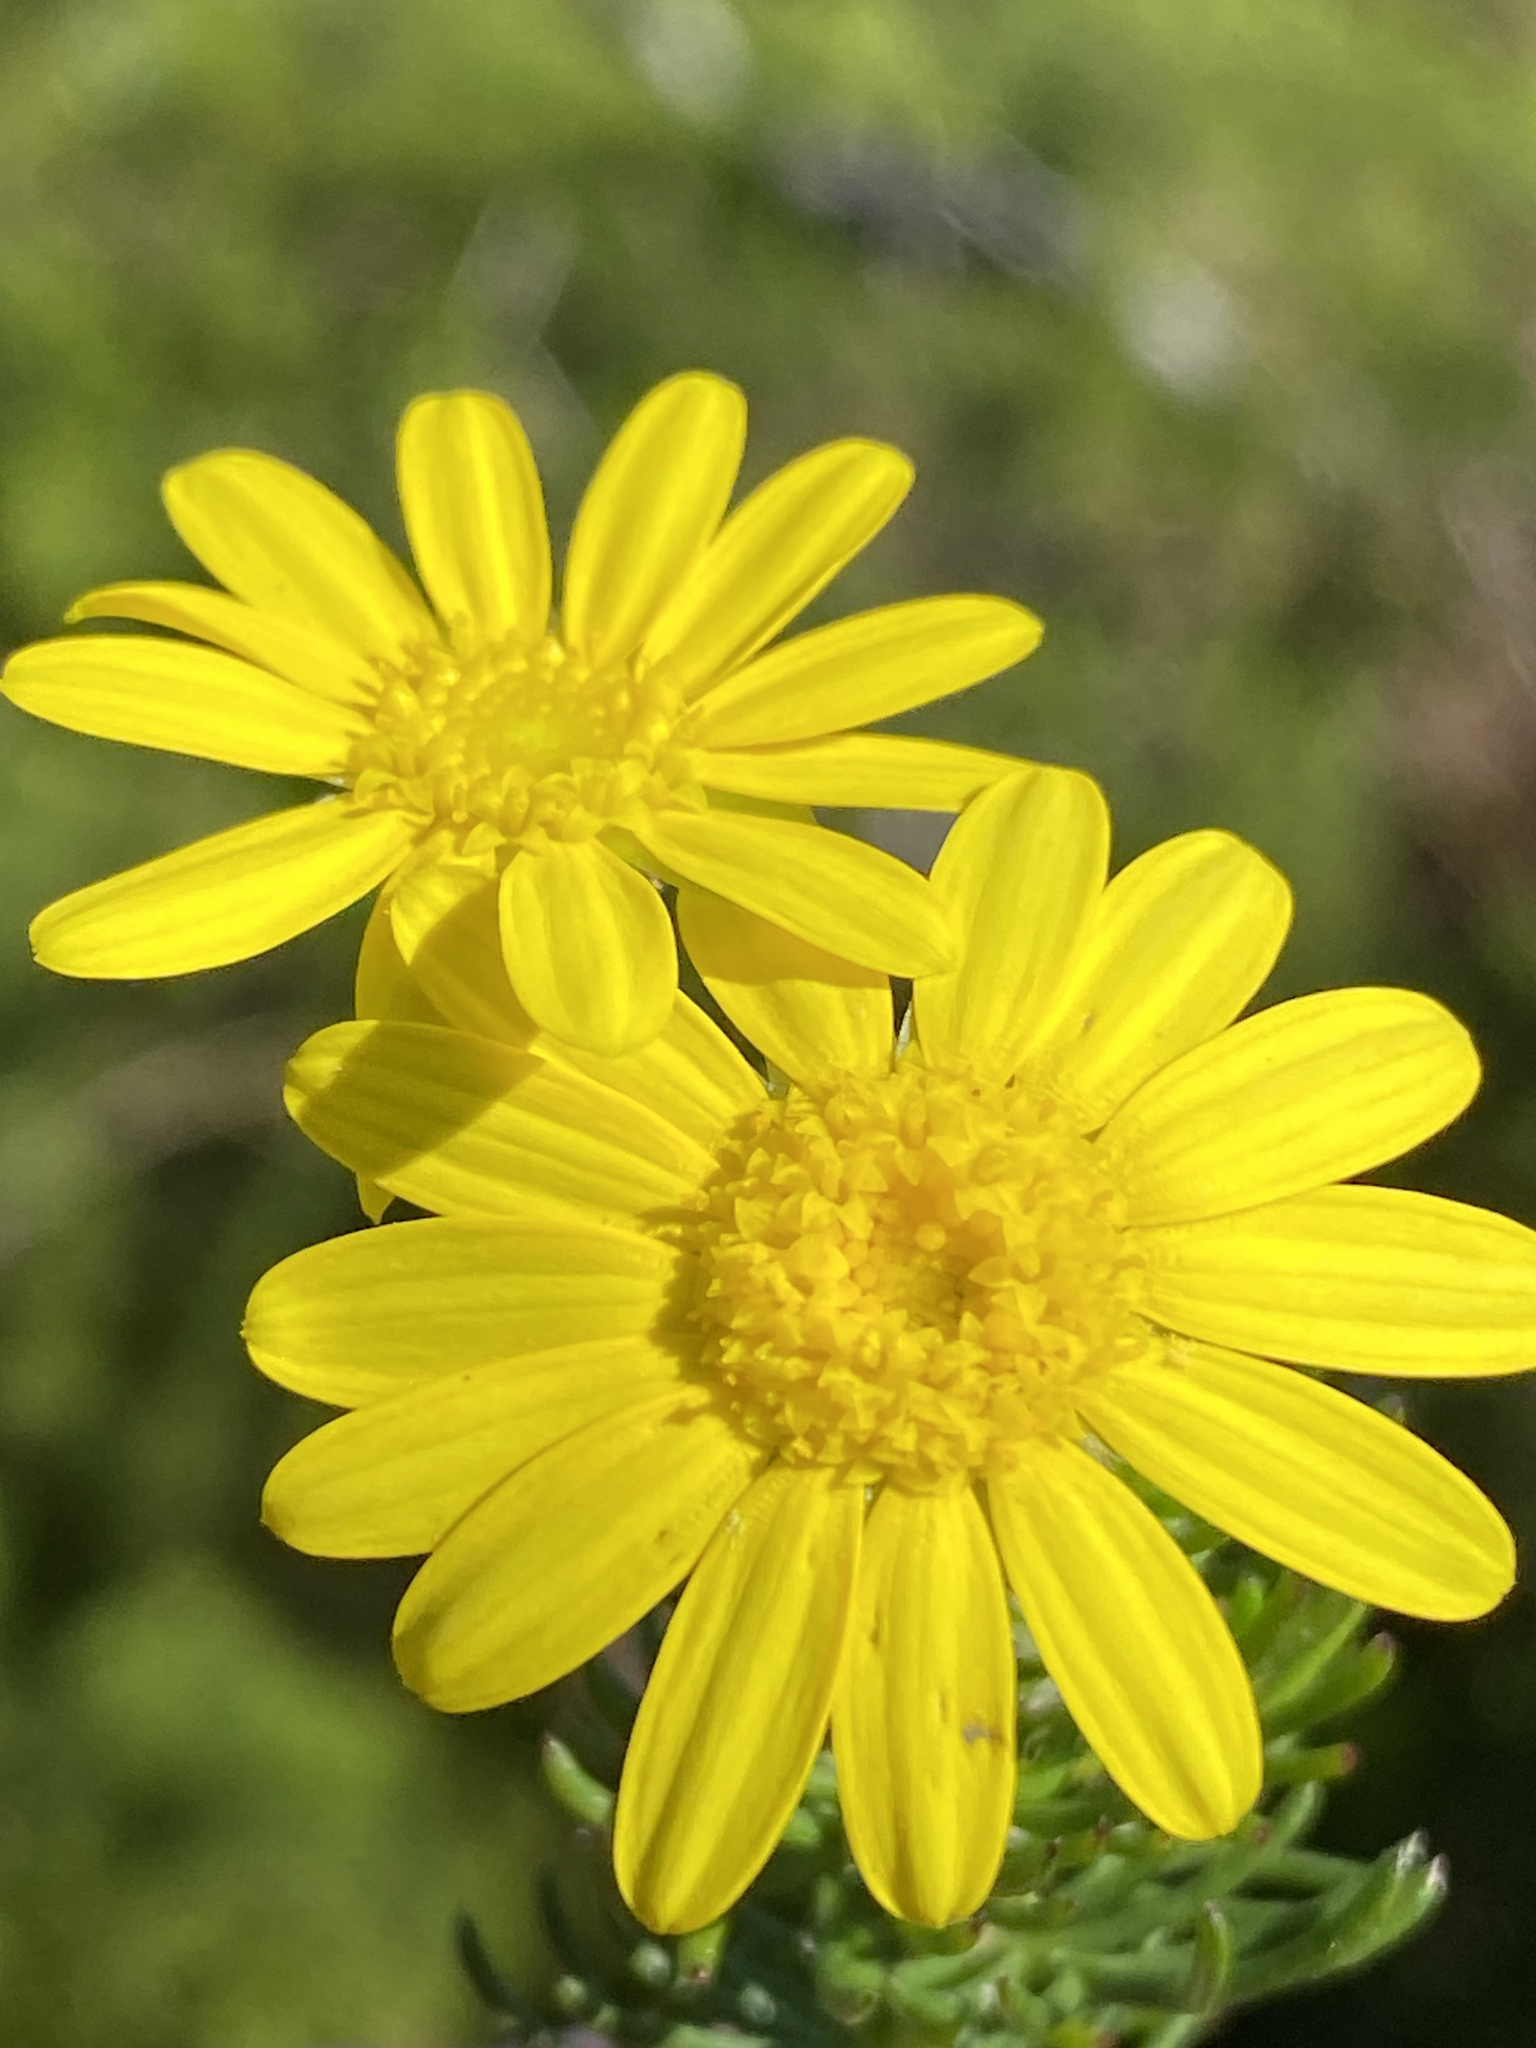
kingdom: Plantae
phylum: Tracheophyta
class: Magnoliopsida
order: Asterales
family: Asteraceae
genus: Euryops
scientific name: Euryops pinnatipartitus
